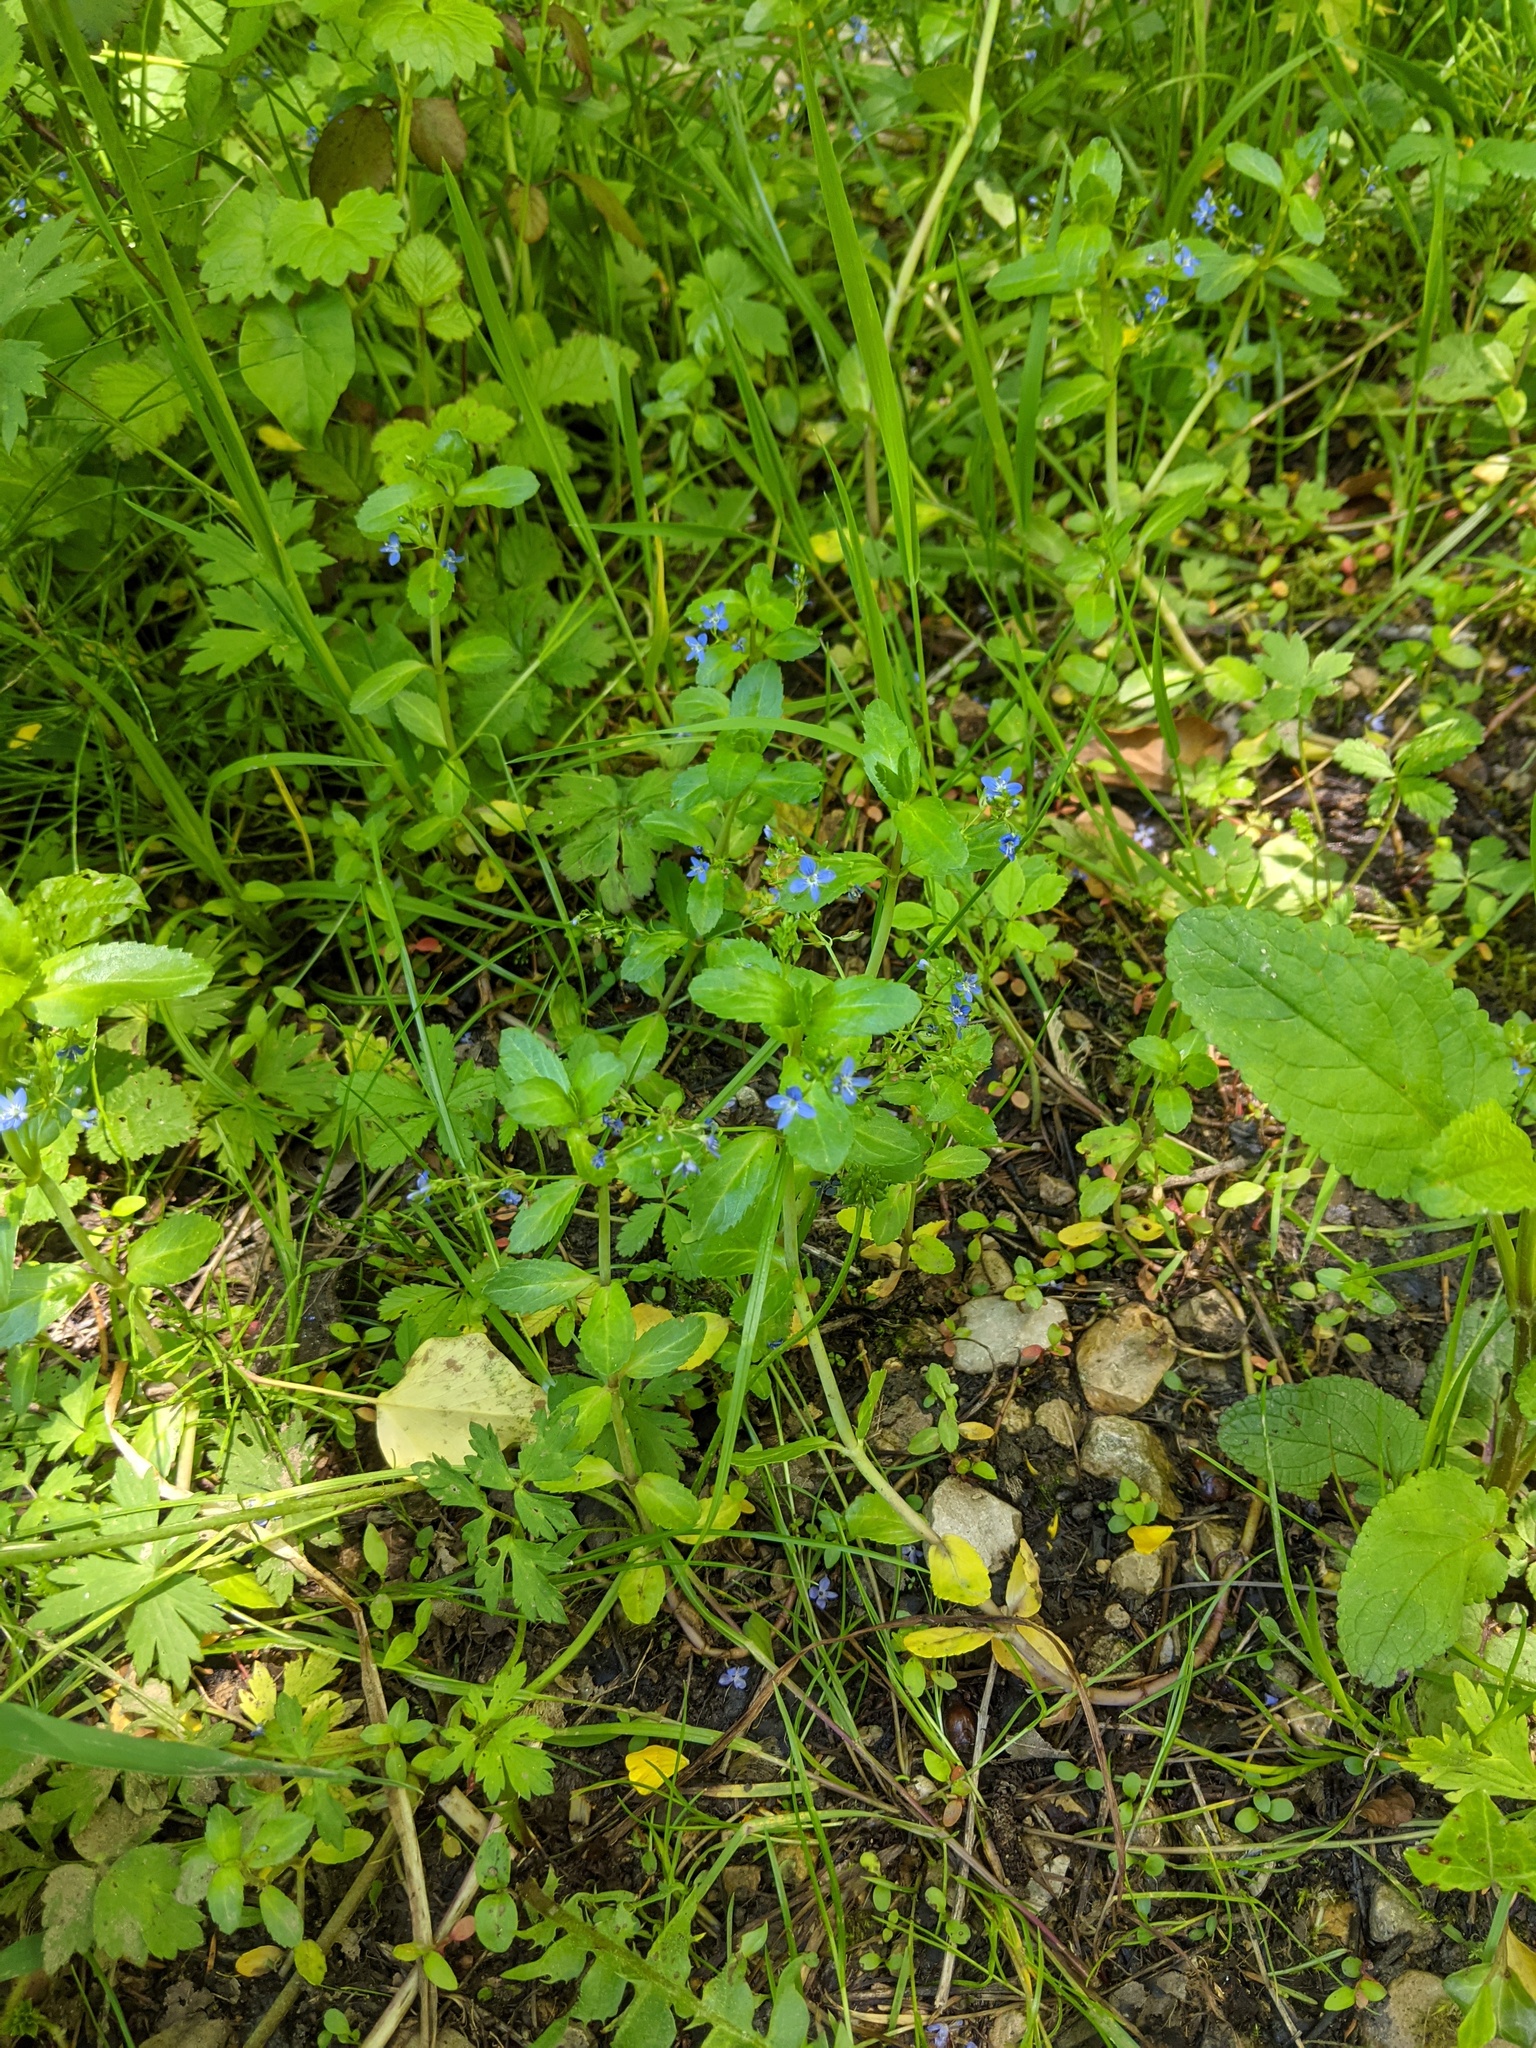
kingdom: Plantae
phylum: Tracheophyta
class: Magnoliopsida
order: Lamiales
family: Plantaginaceae
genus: Veronica
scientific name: Veronica beccabunga
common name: Brooklime
